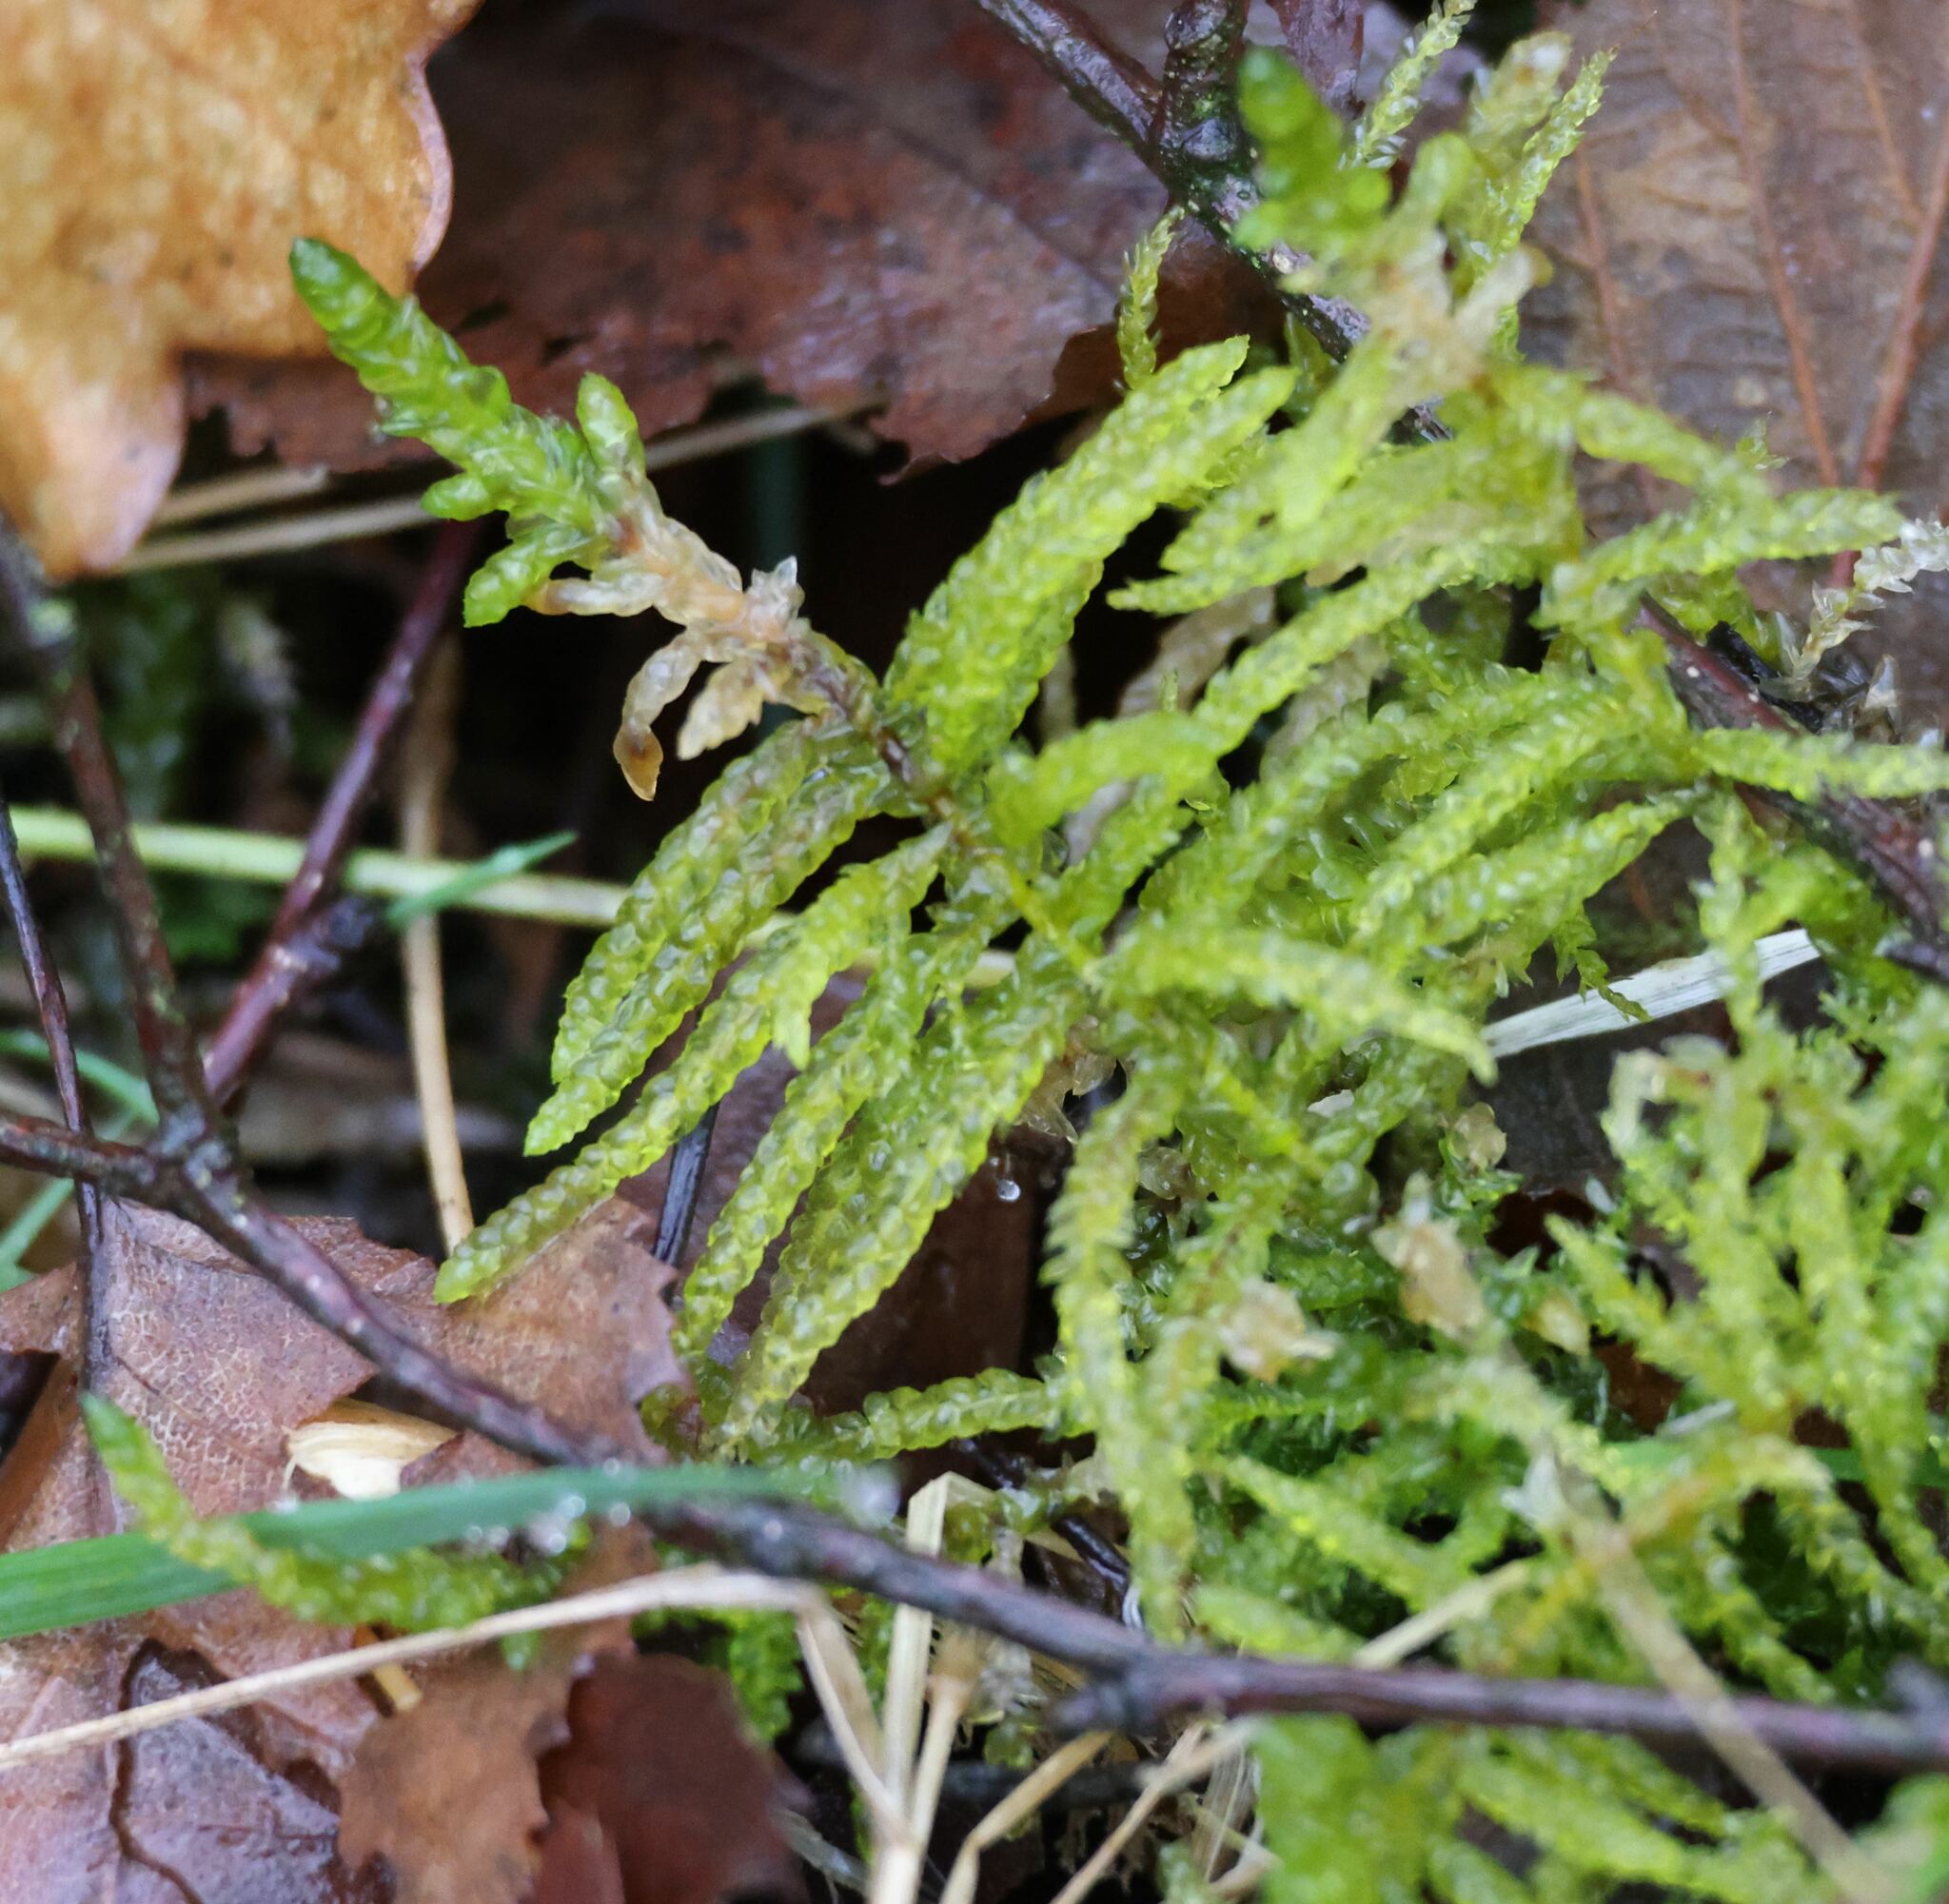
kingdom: Plantae
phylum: Bryophyta
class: Bryopsida
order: Hypnales
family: Brachytheciaceae
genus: Pseudoscleropodium
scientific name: Pseudoscleropodium purum
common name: Neat feather-moss
